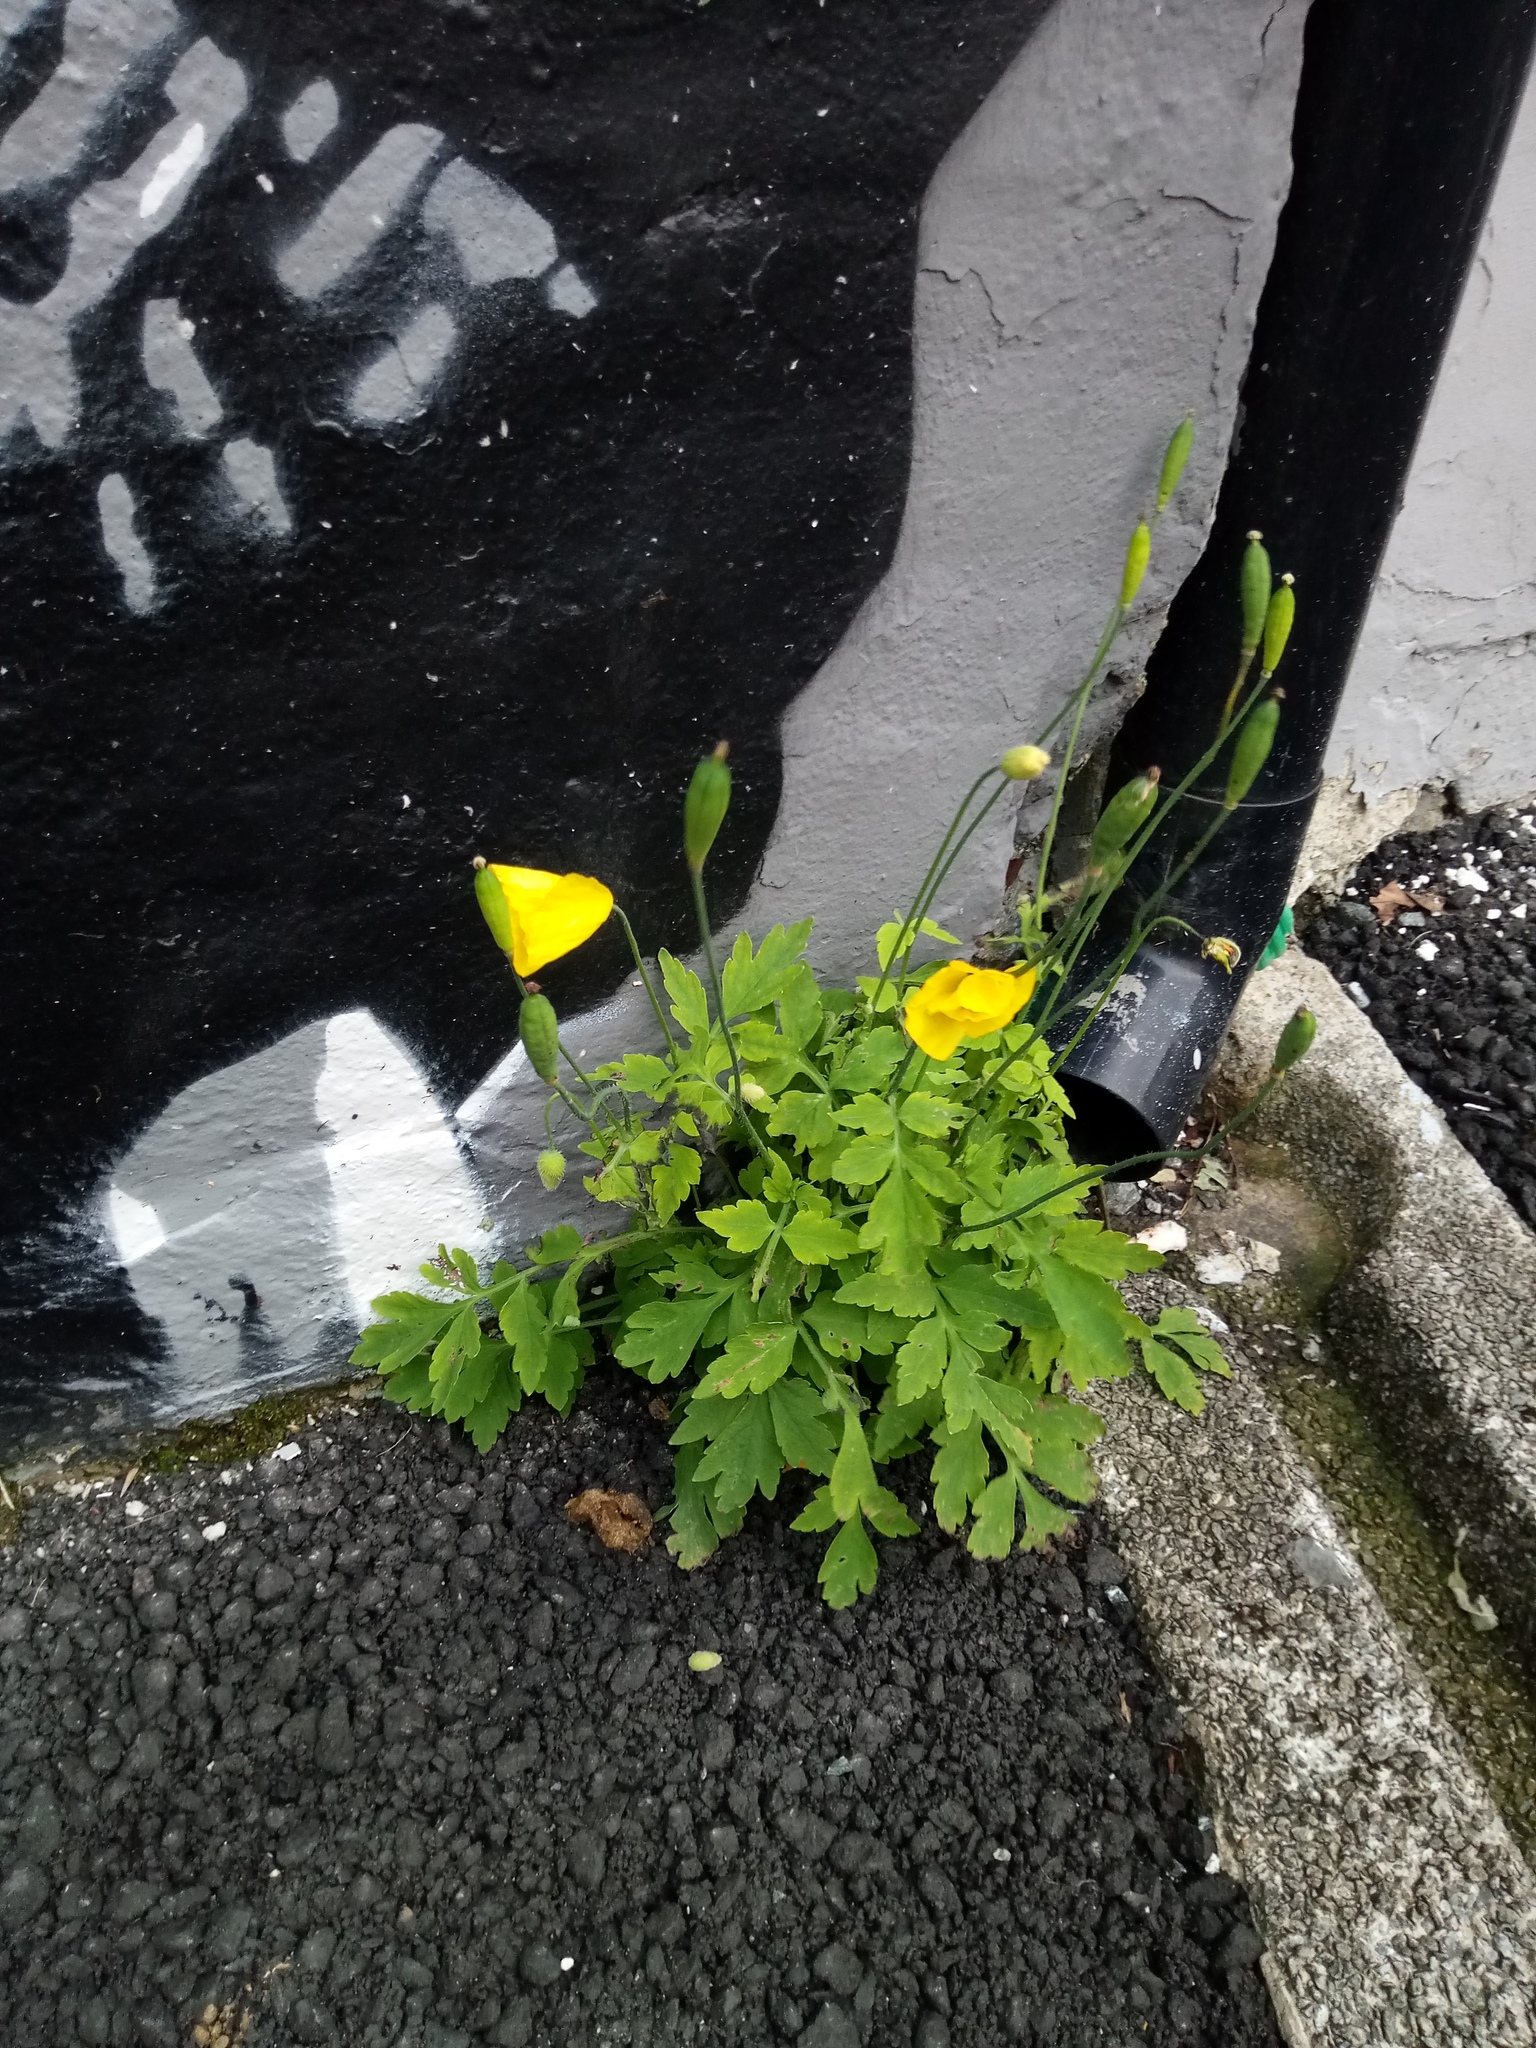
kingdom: Plantae
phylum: Tracheophyta
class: Magnoliopsida
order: Ranunculales
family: Papaveraceae
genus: Papaver
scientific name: Papaver cambricum
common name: Poppy
